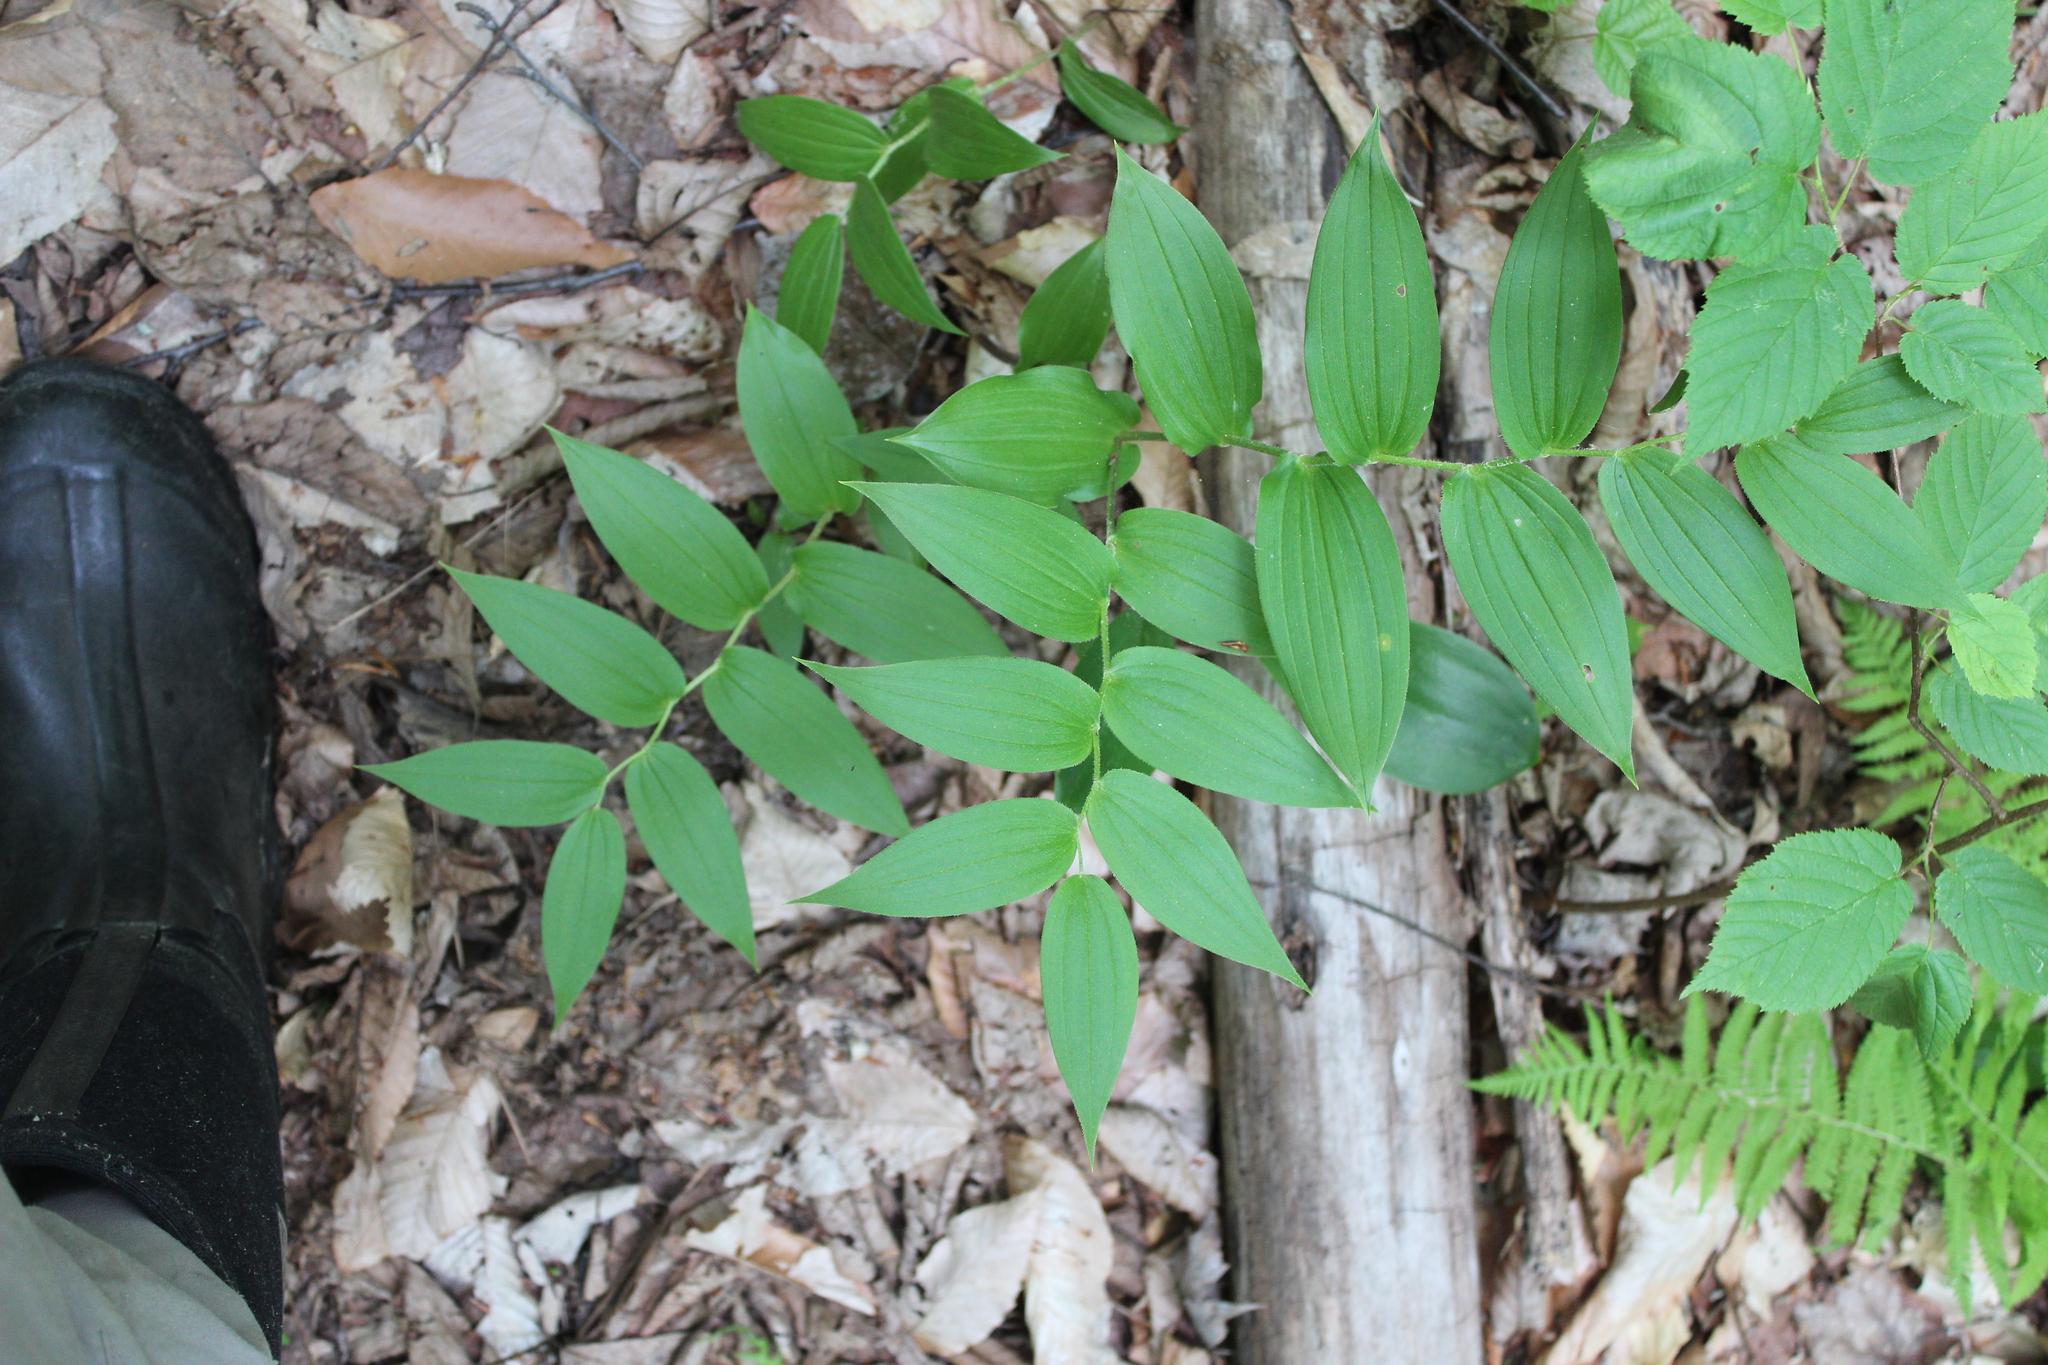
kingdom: Plantae
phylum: Tracheophyta
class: Liliopsida
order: Liliales
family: Liliaceae
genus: Streptopus
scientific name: Streptopus lanceolatus
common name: Rose mandarin
